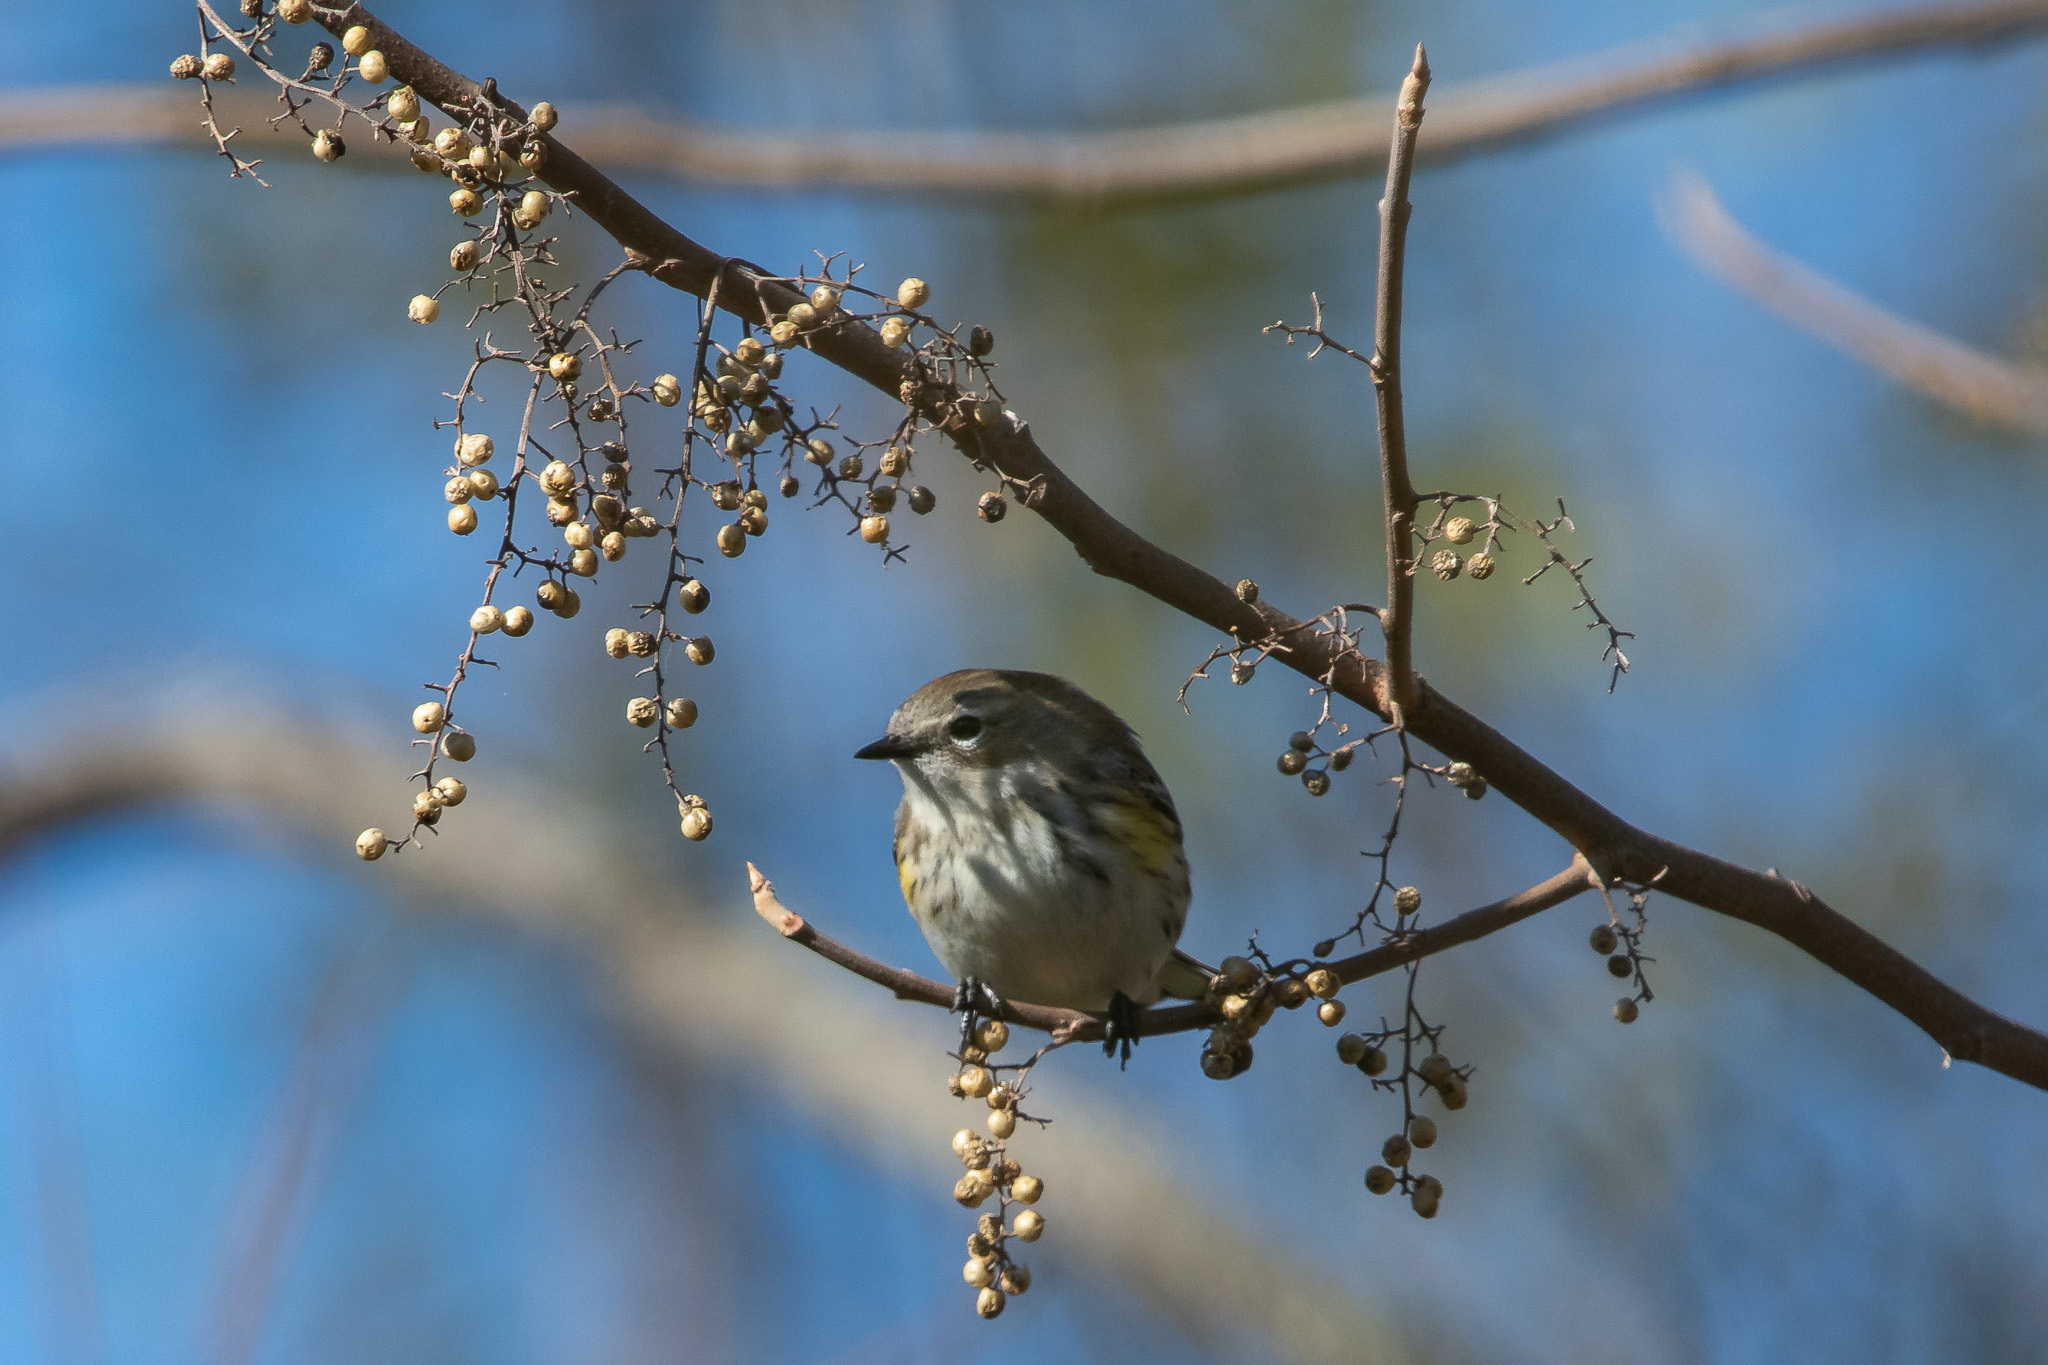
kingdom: Animalia
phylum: Chordata
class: Aves
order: Passeriformes
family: Parulidae
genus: Setophaga
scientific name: Setophaga coronata
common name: Myrtle warbler
